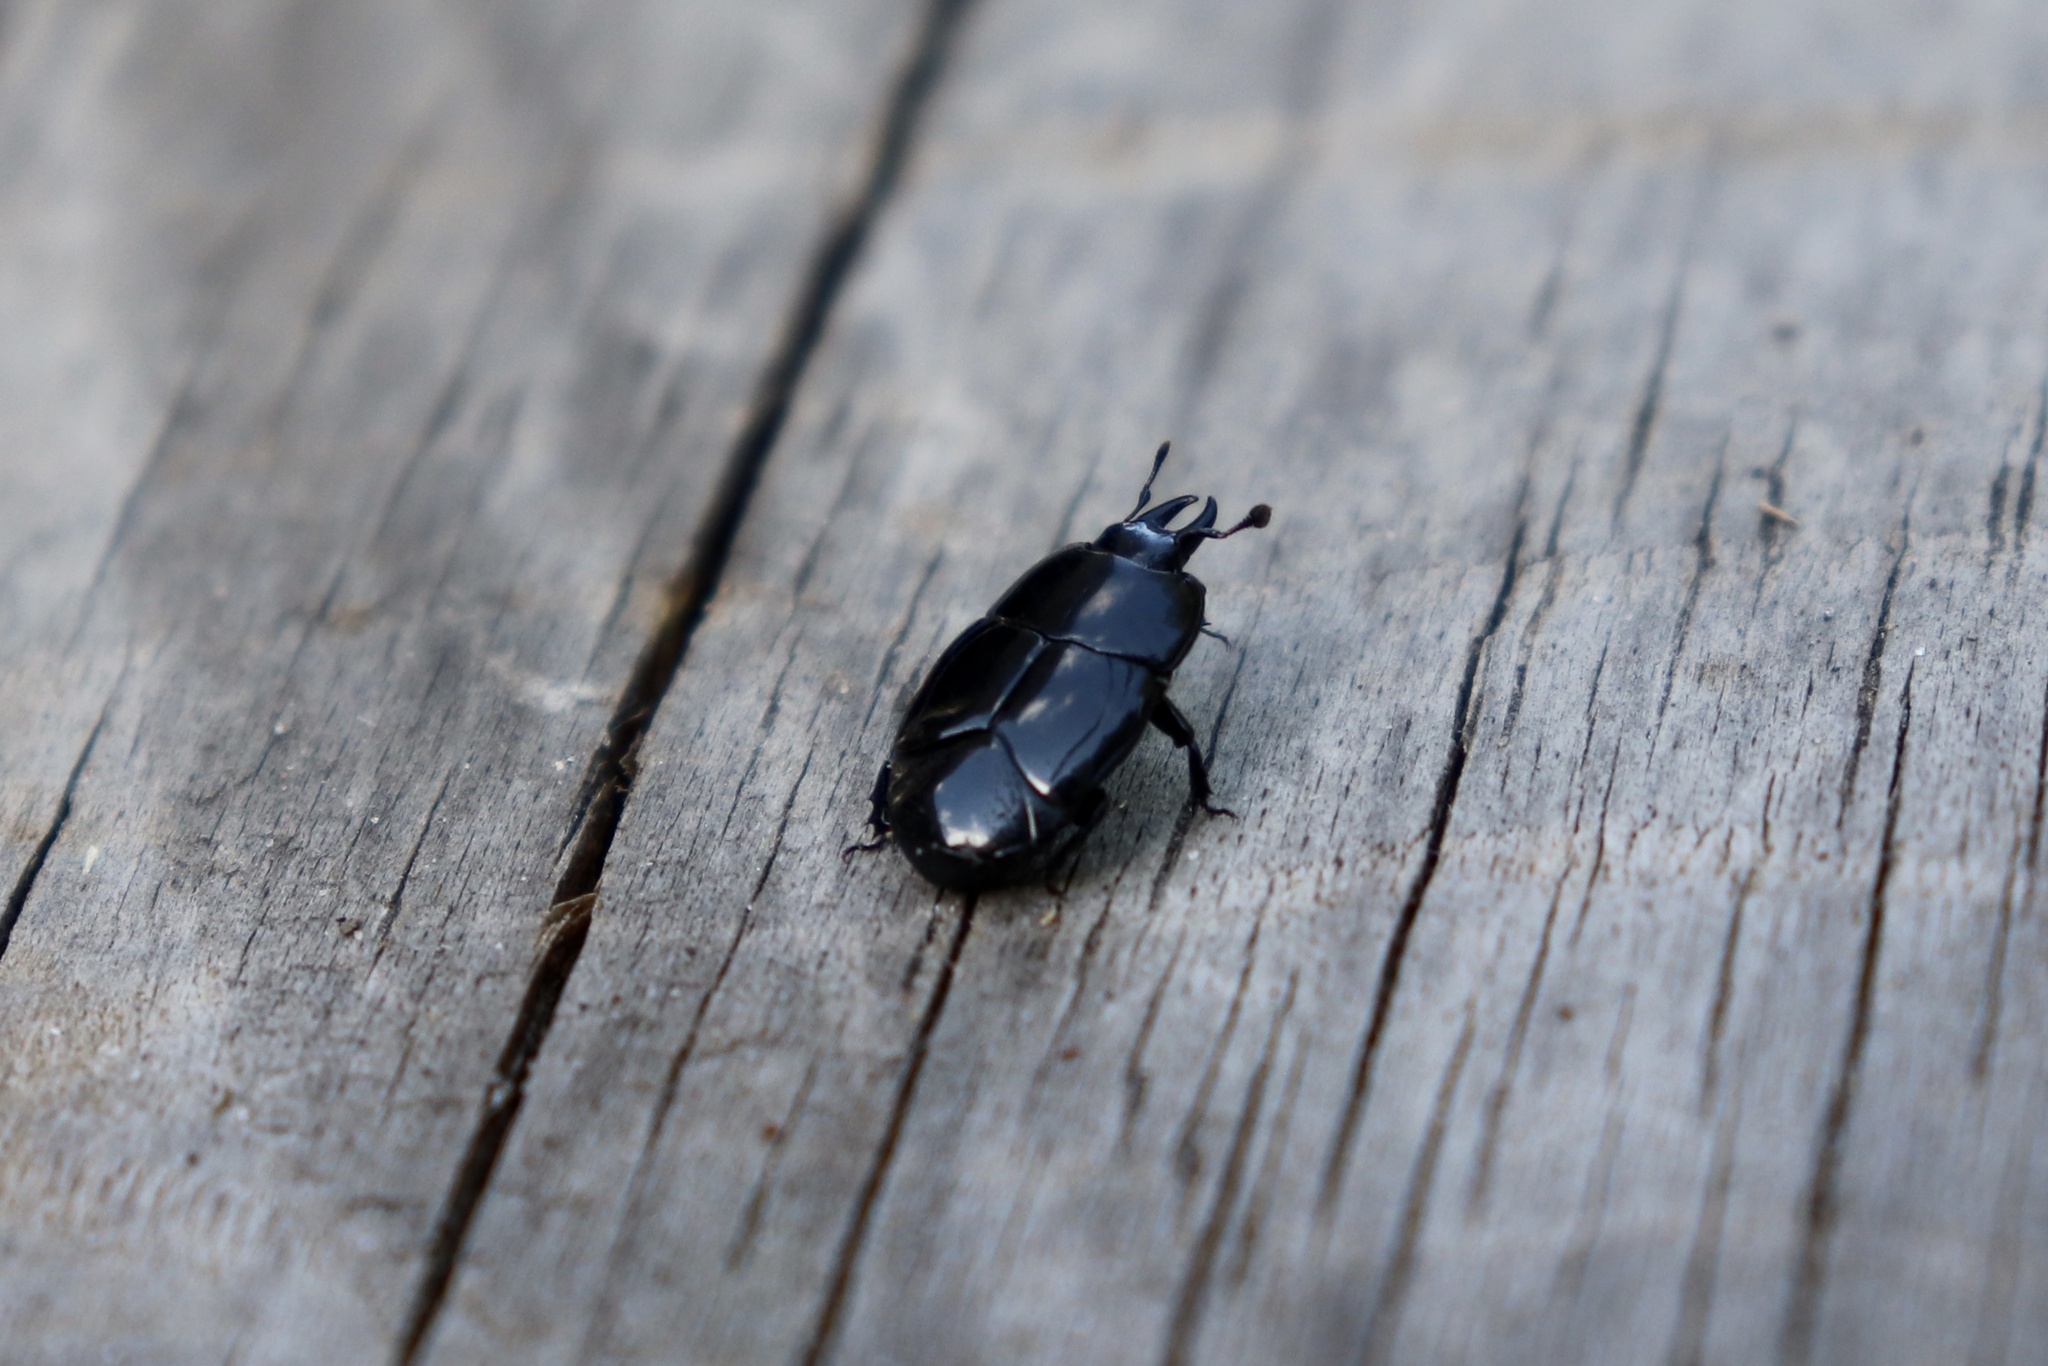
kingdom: Animalia
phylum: Arthropoda
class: Insecta
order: Coleoptera
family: Histeridae
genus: Hololepta
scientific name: Hololepta aequalis
